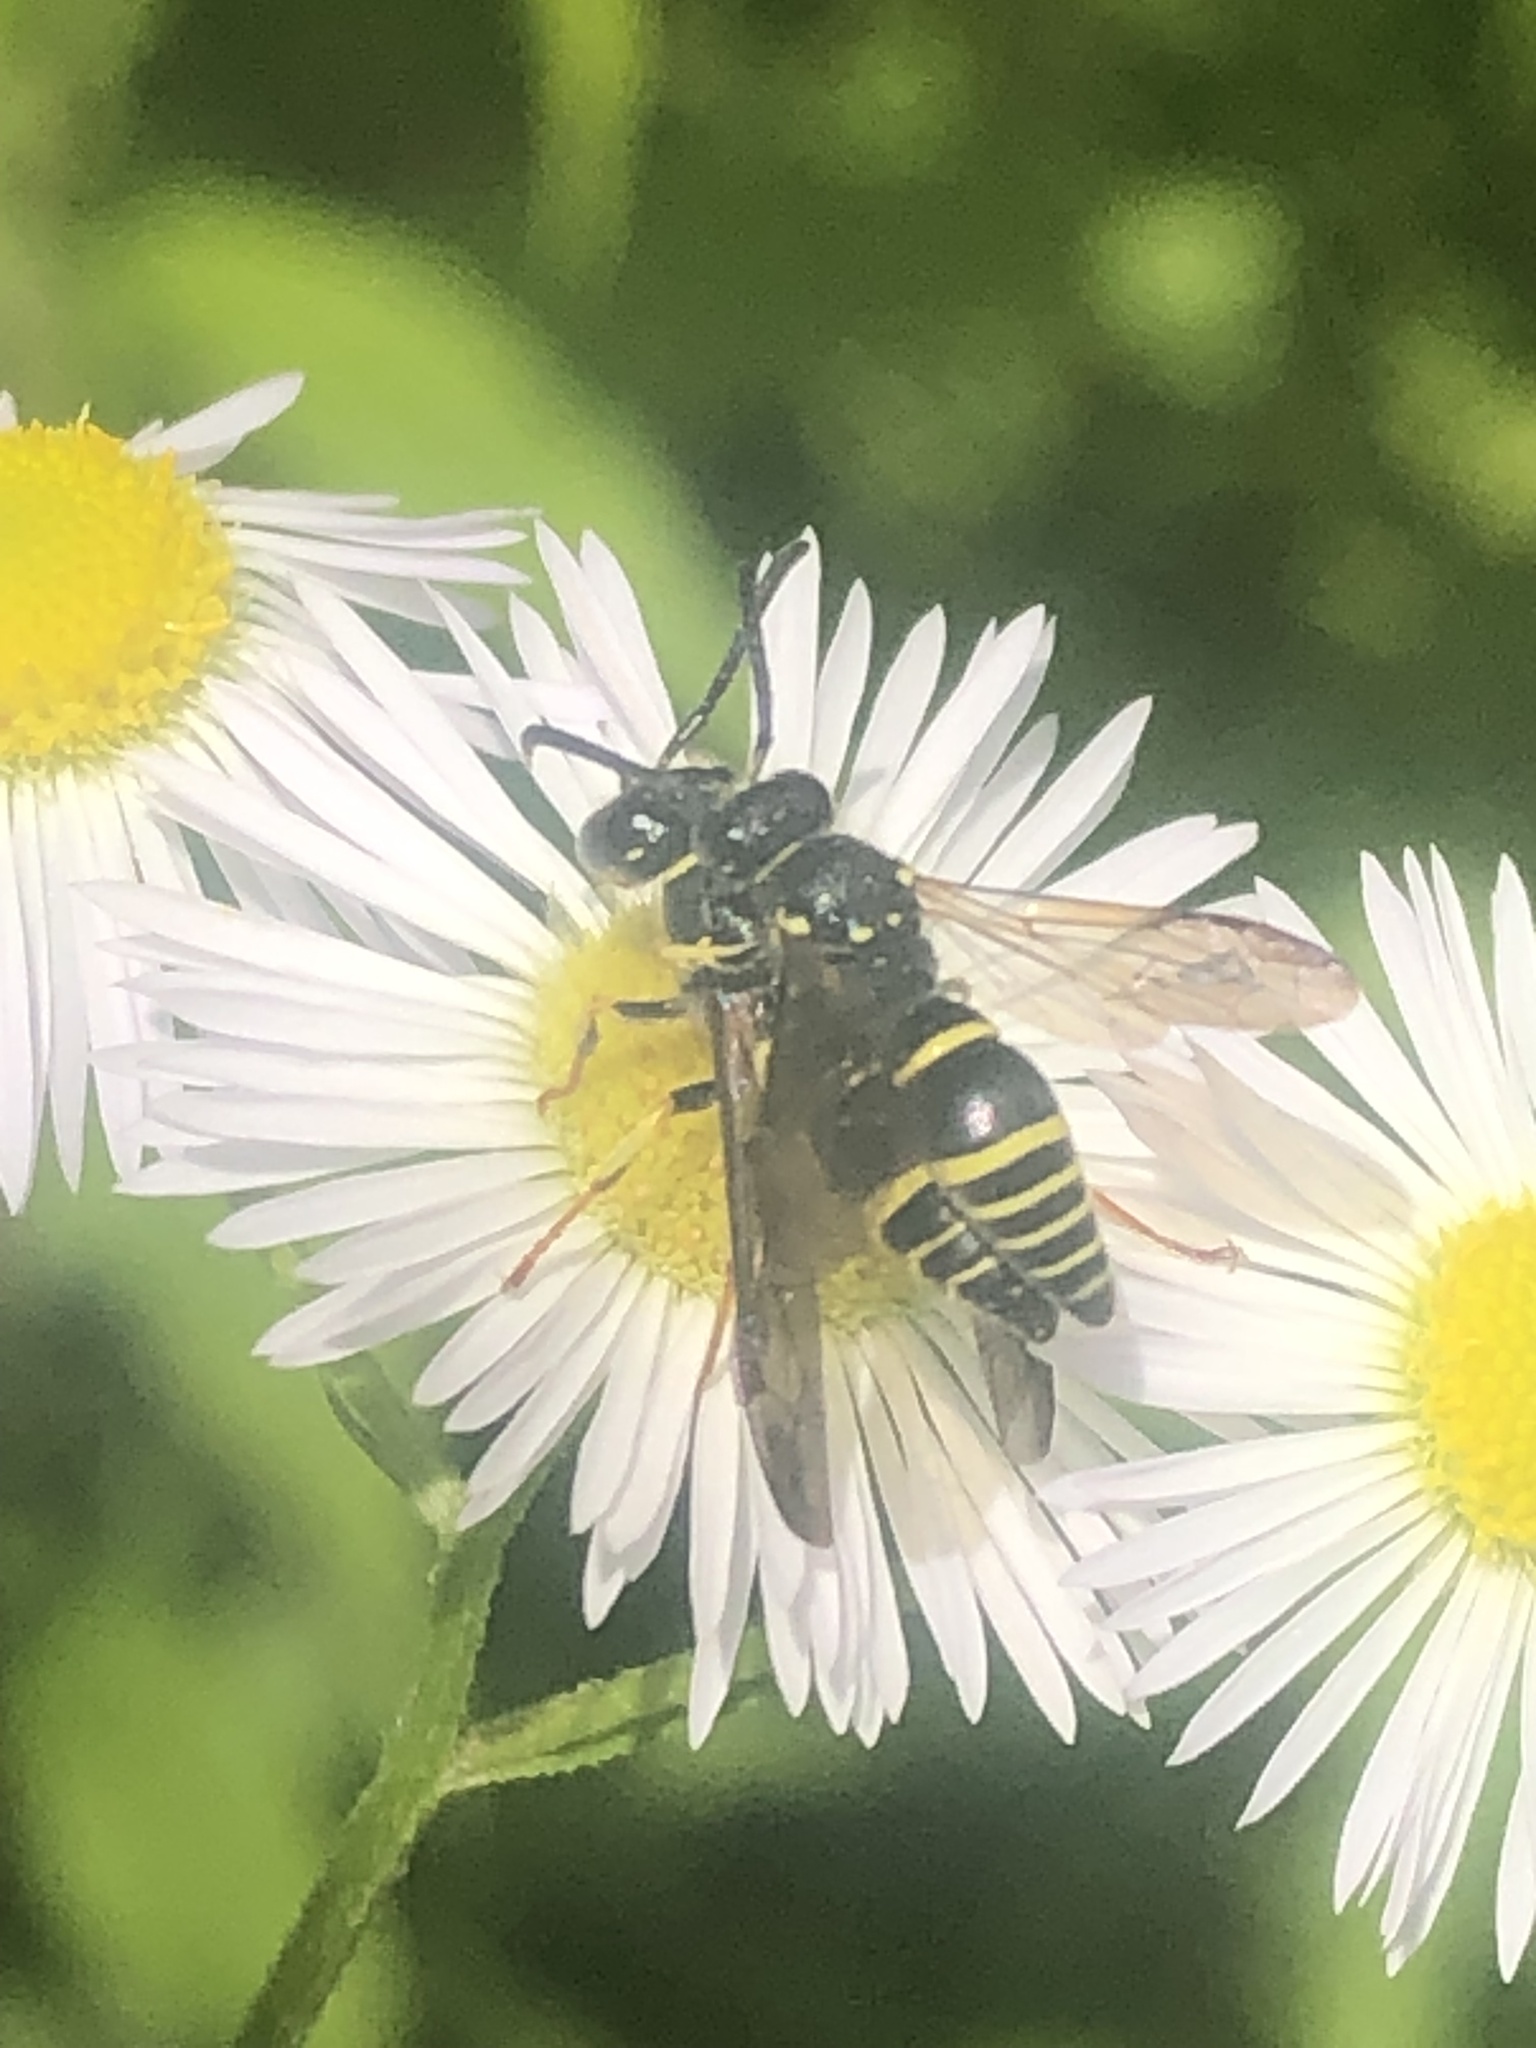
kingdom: Animalia
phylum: Arthropoda
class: Insecta
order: Hymenoptera
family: Vespidae
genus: Ancistrocerus
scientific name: Ancistrocerus
